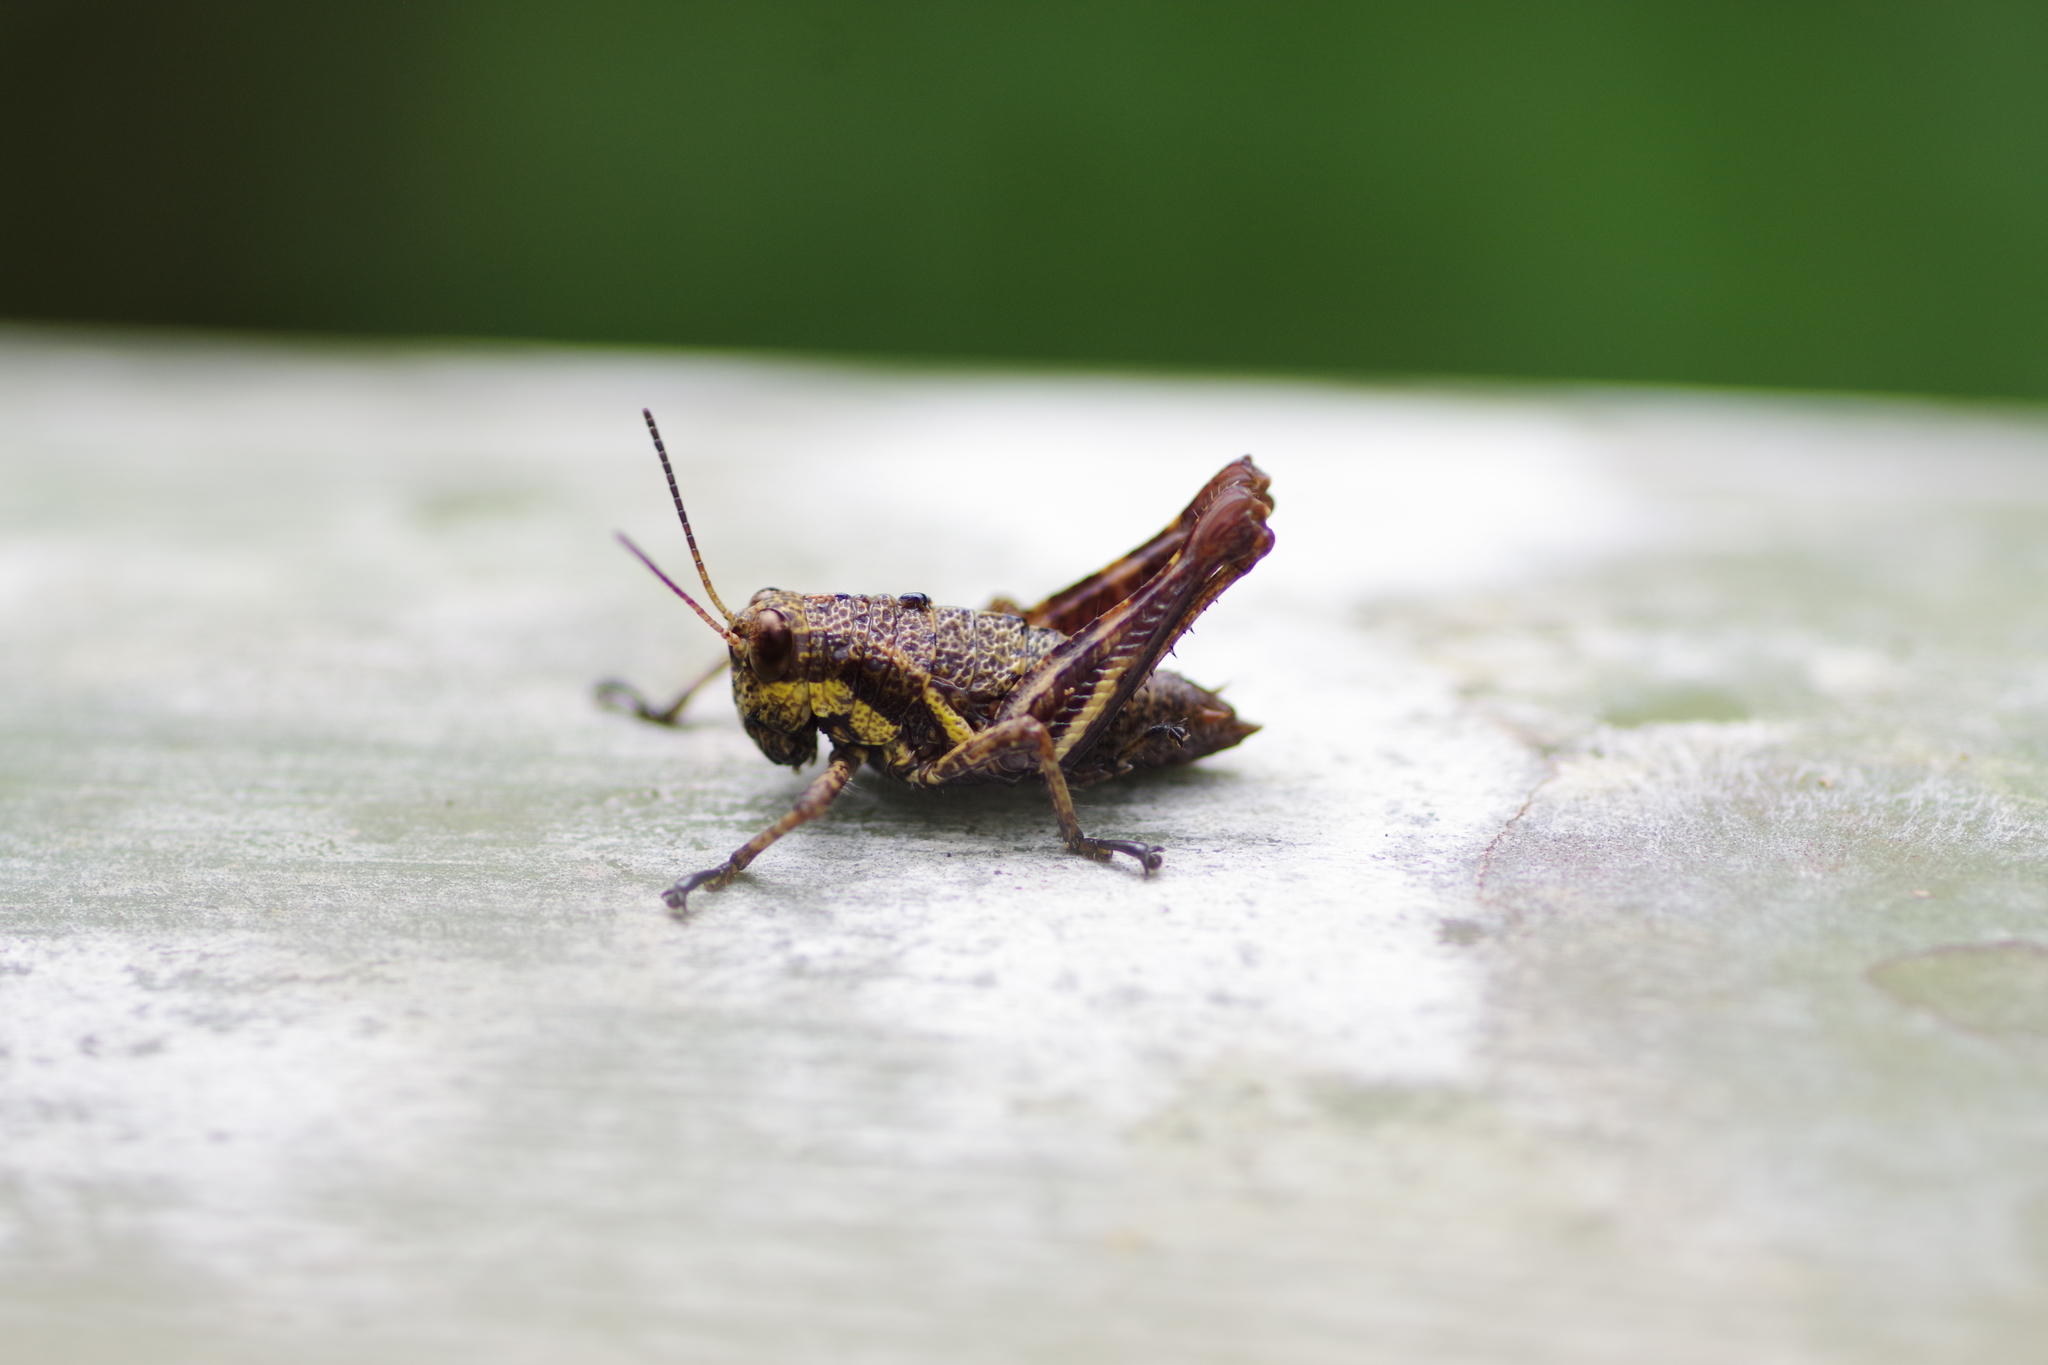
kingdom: Animalia
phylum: Arthropoda
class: Insecta
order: Orthoptera
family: Acrididae
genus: Rhachicreagra
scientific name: Rhachicreagra obsidian
